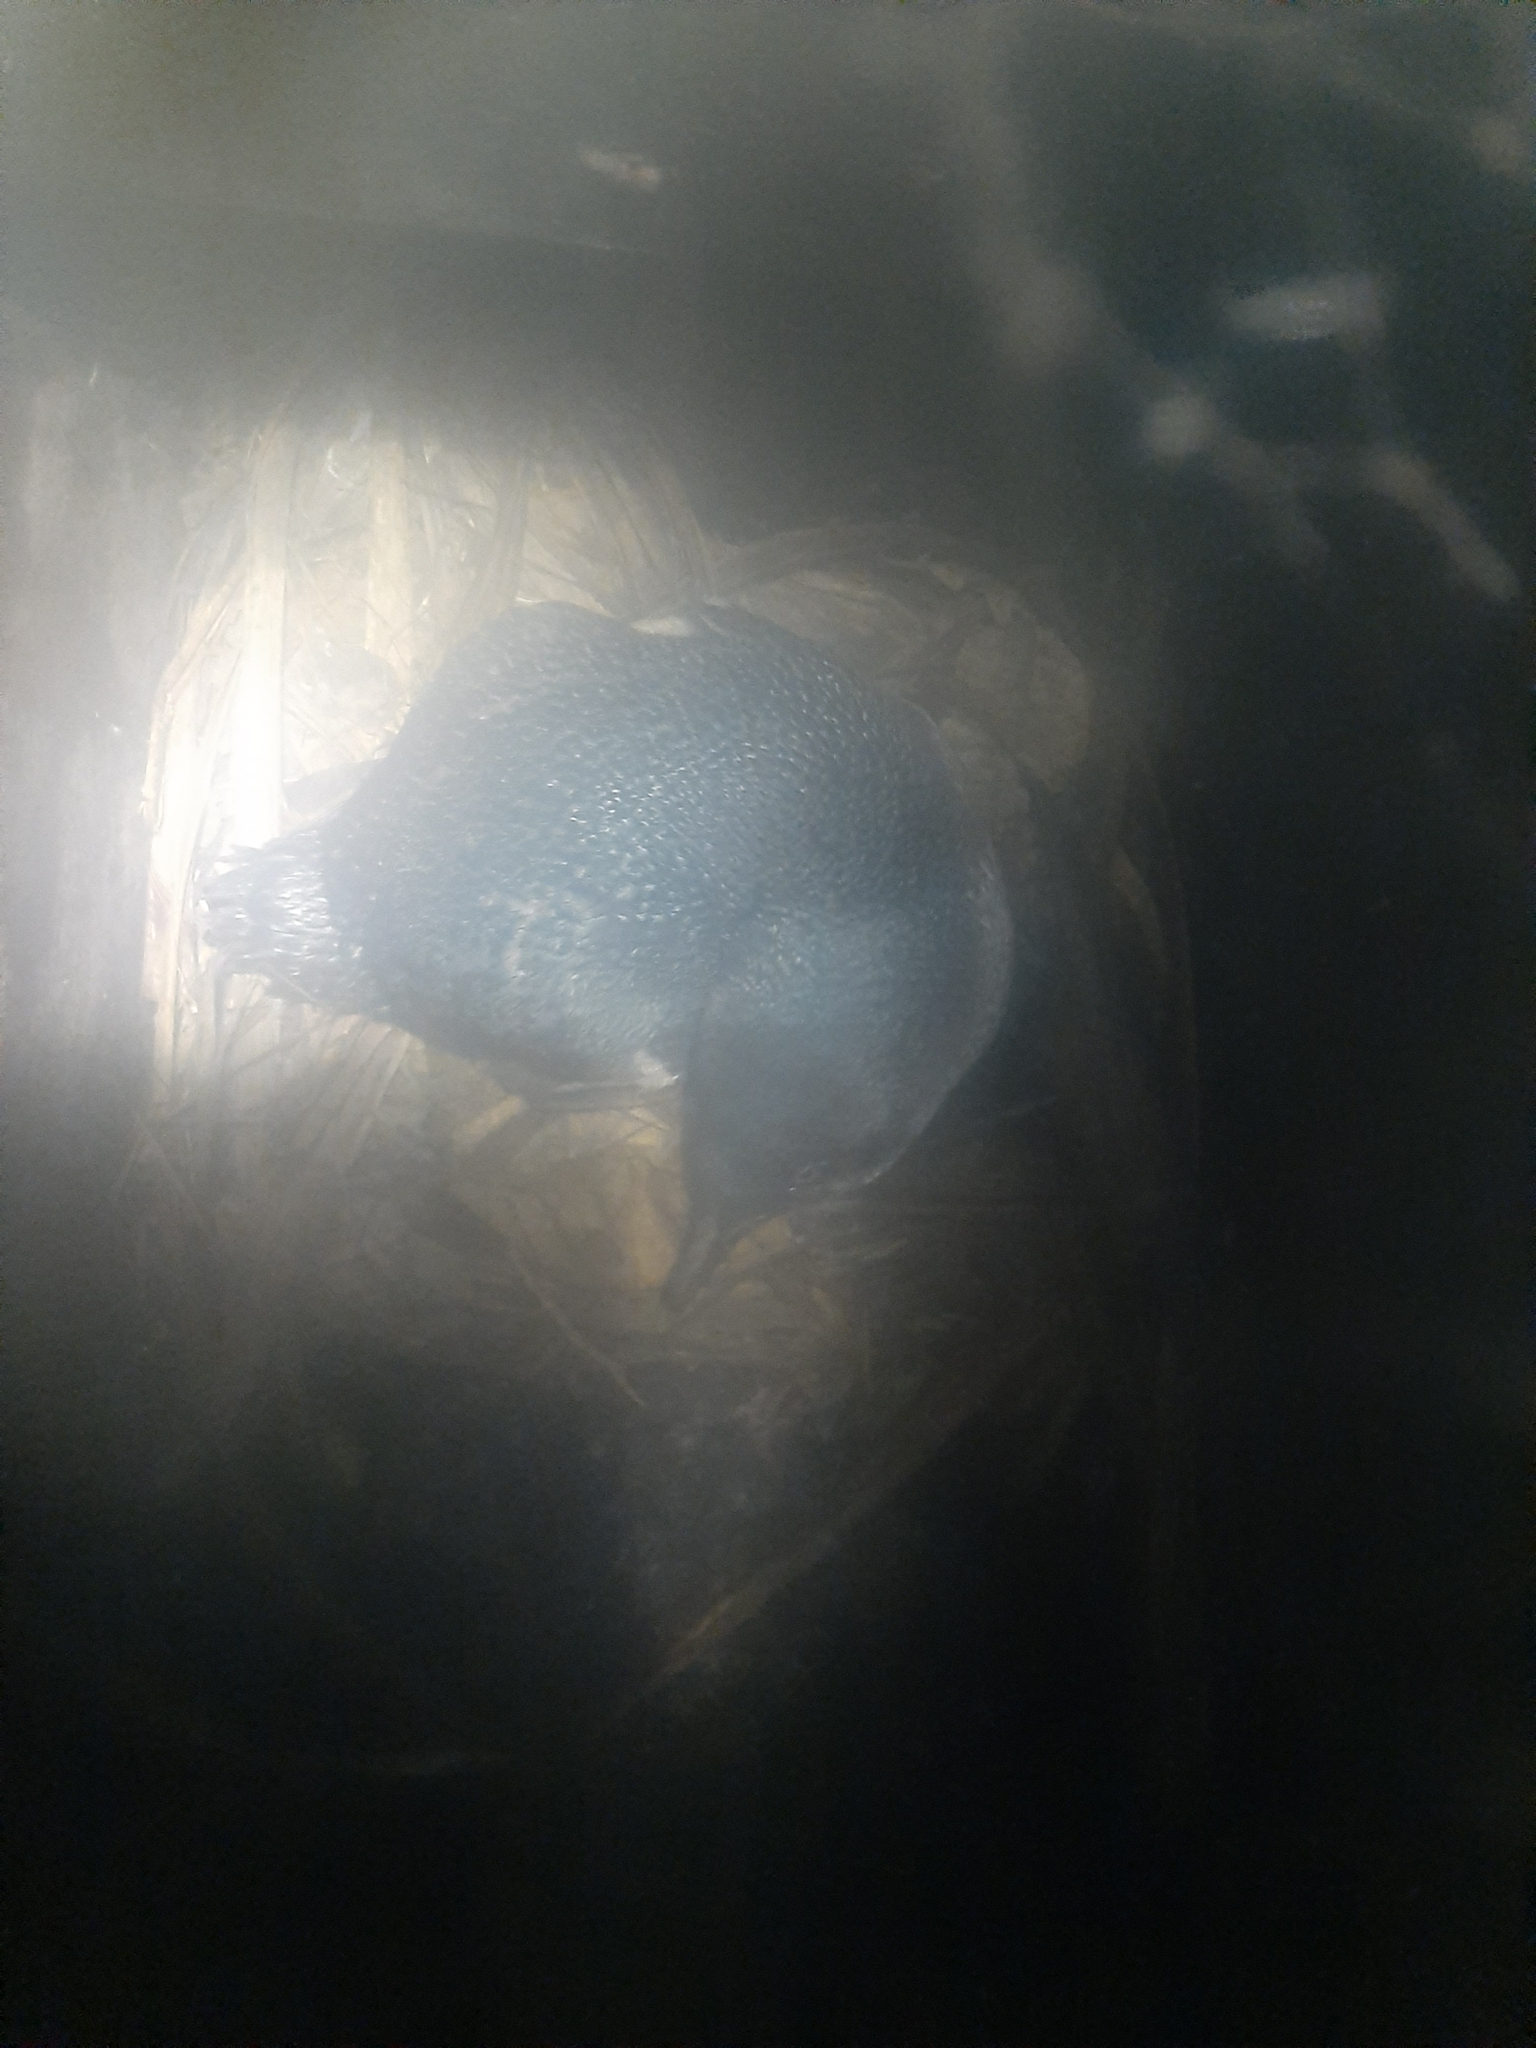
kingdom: Animalia
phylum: Chordata
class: Aves
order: Sphenisciformes
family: Spheniscidae
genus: Eudyptula
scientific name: Eudyptula minor
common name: Little penguin
